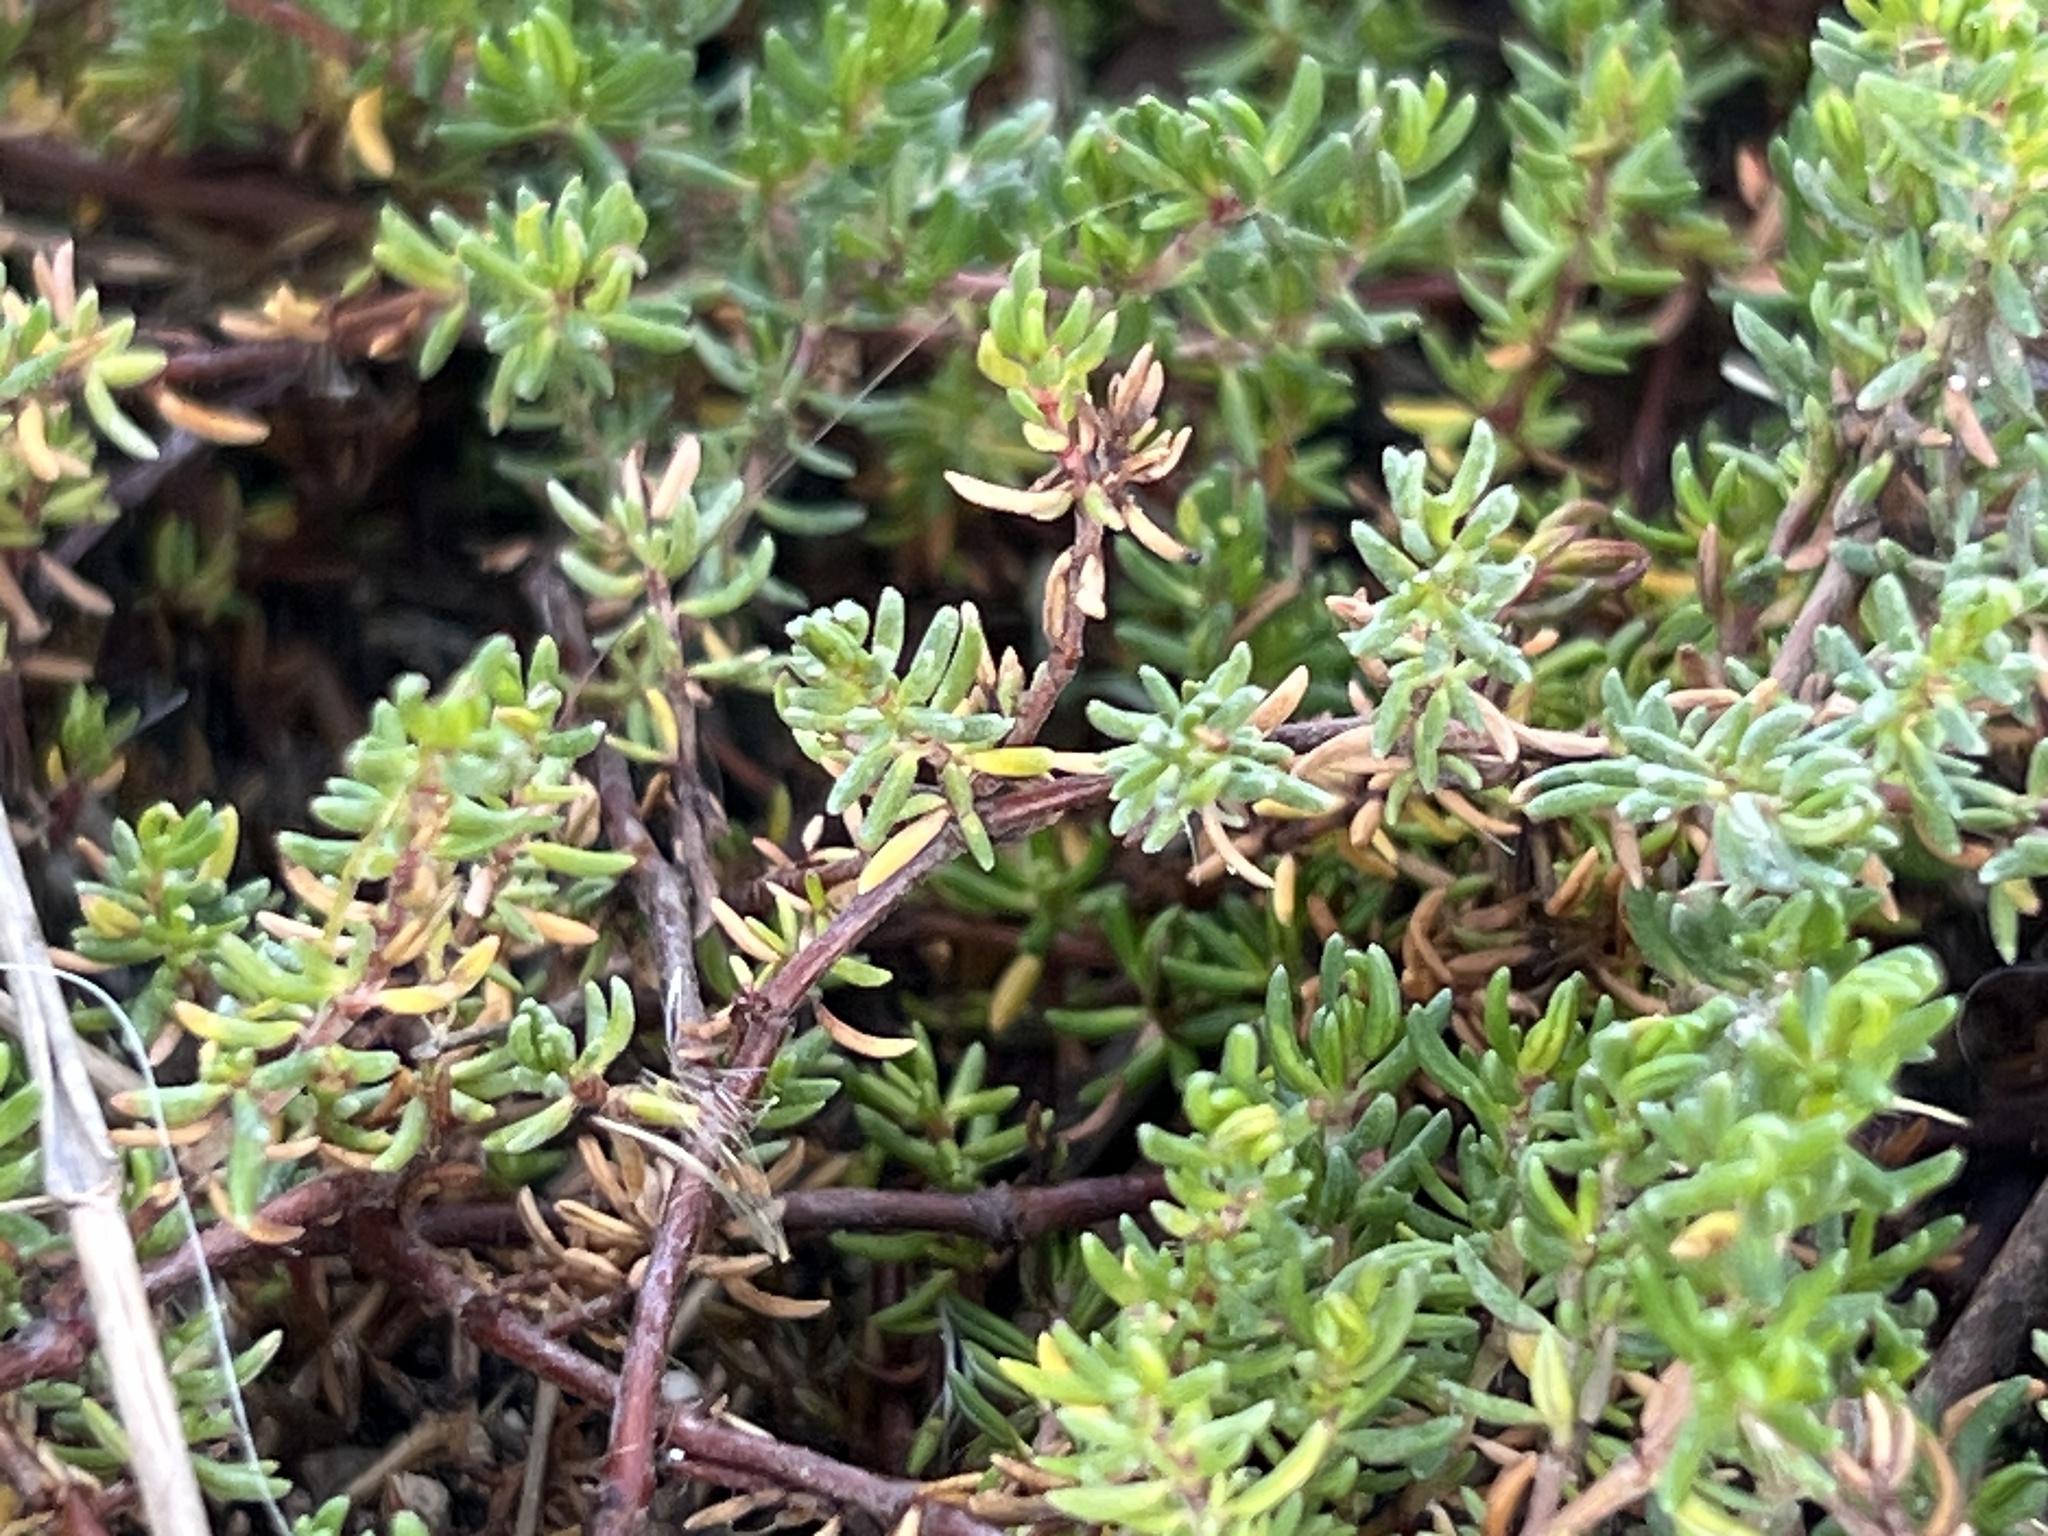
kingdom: Plantae
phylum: Tracheophyta
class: Magnoliopsida
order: Caryophyllales
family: Frankeniaceae
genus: Frankenia
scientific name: Frankenia laevis
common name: Sea-heath
